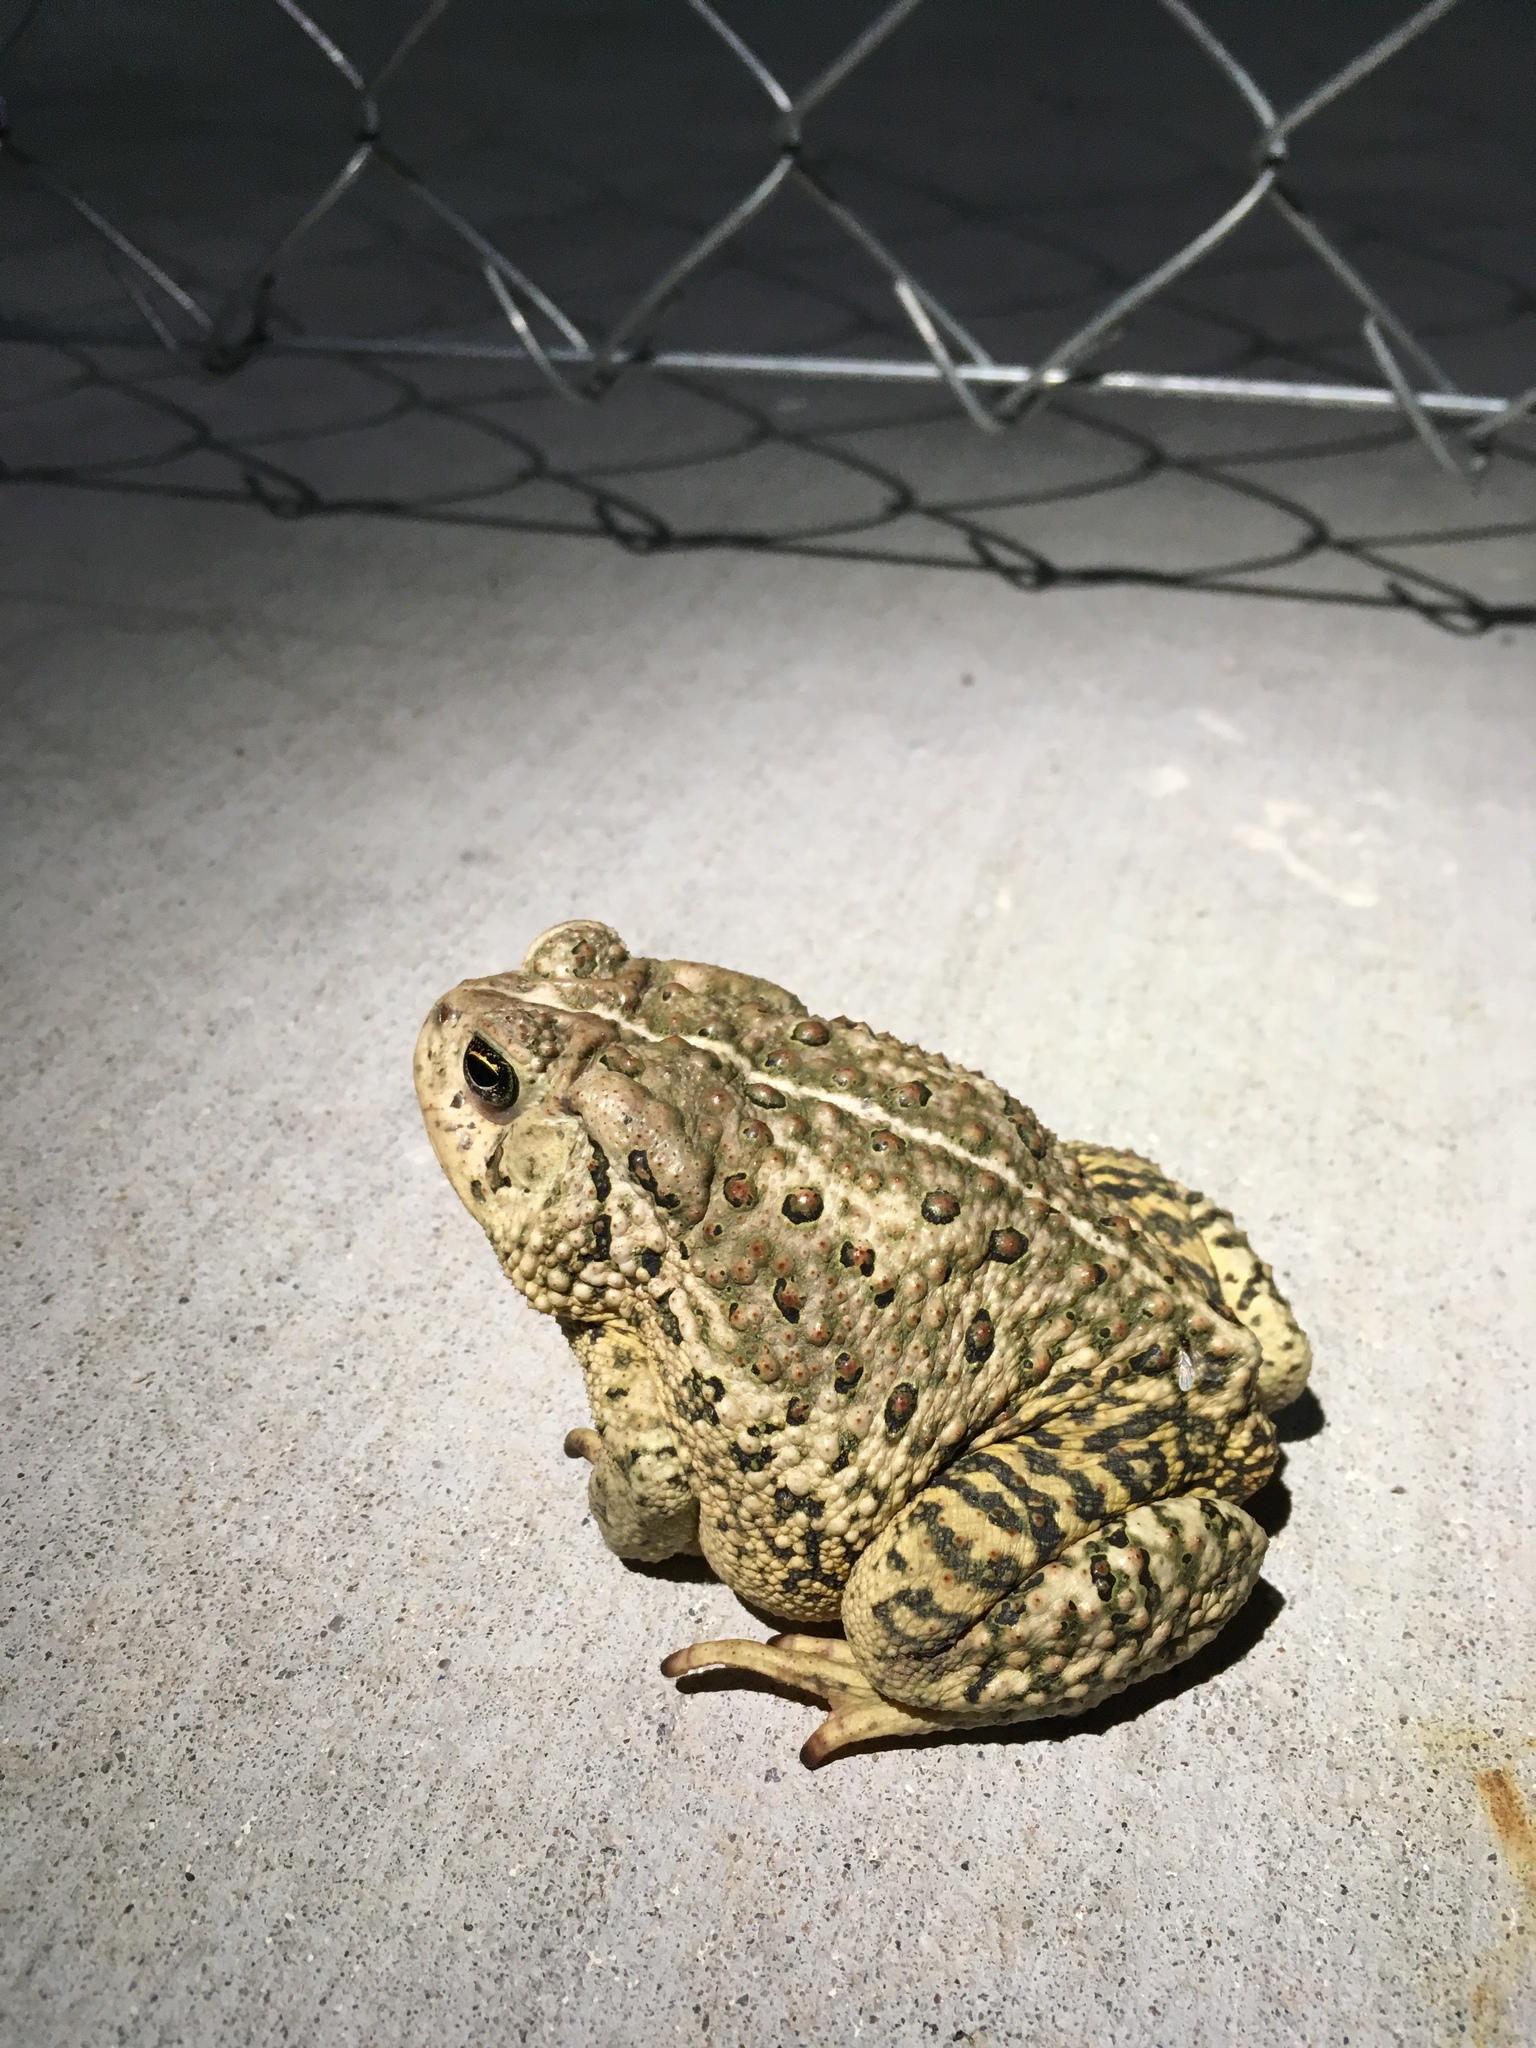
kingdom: Animalia
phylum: Chordata
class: Amphibia
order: Anura
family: Bufonidae
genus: Anaxyrus
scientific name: Anaxyrus woodhousii
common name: Woodhouse's toad
